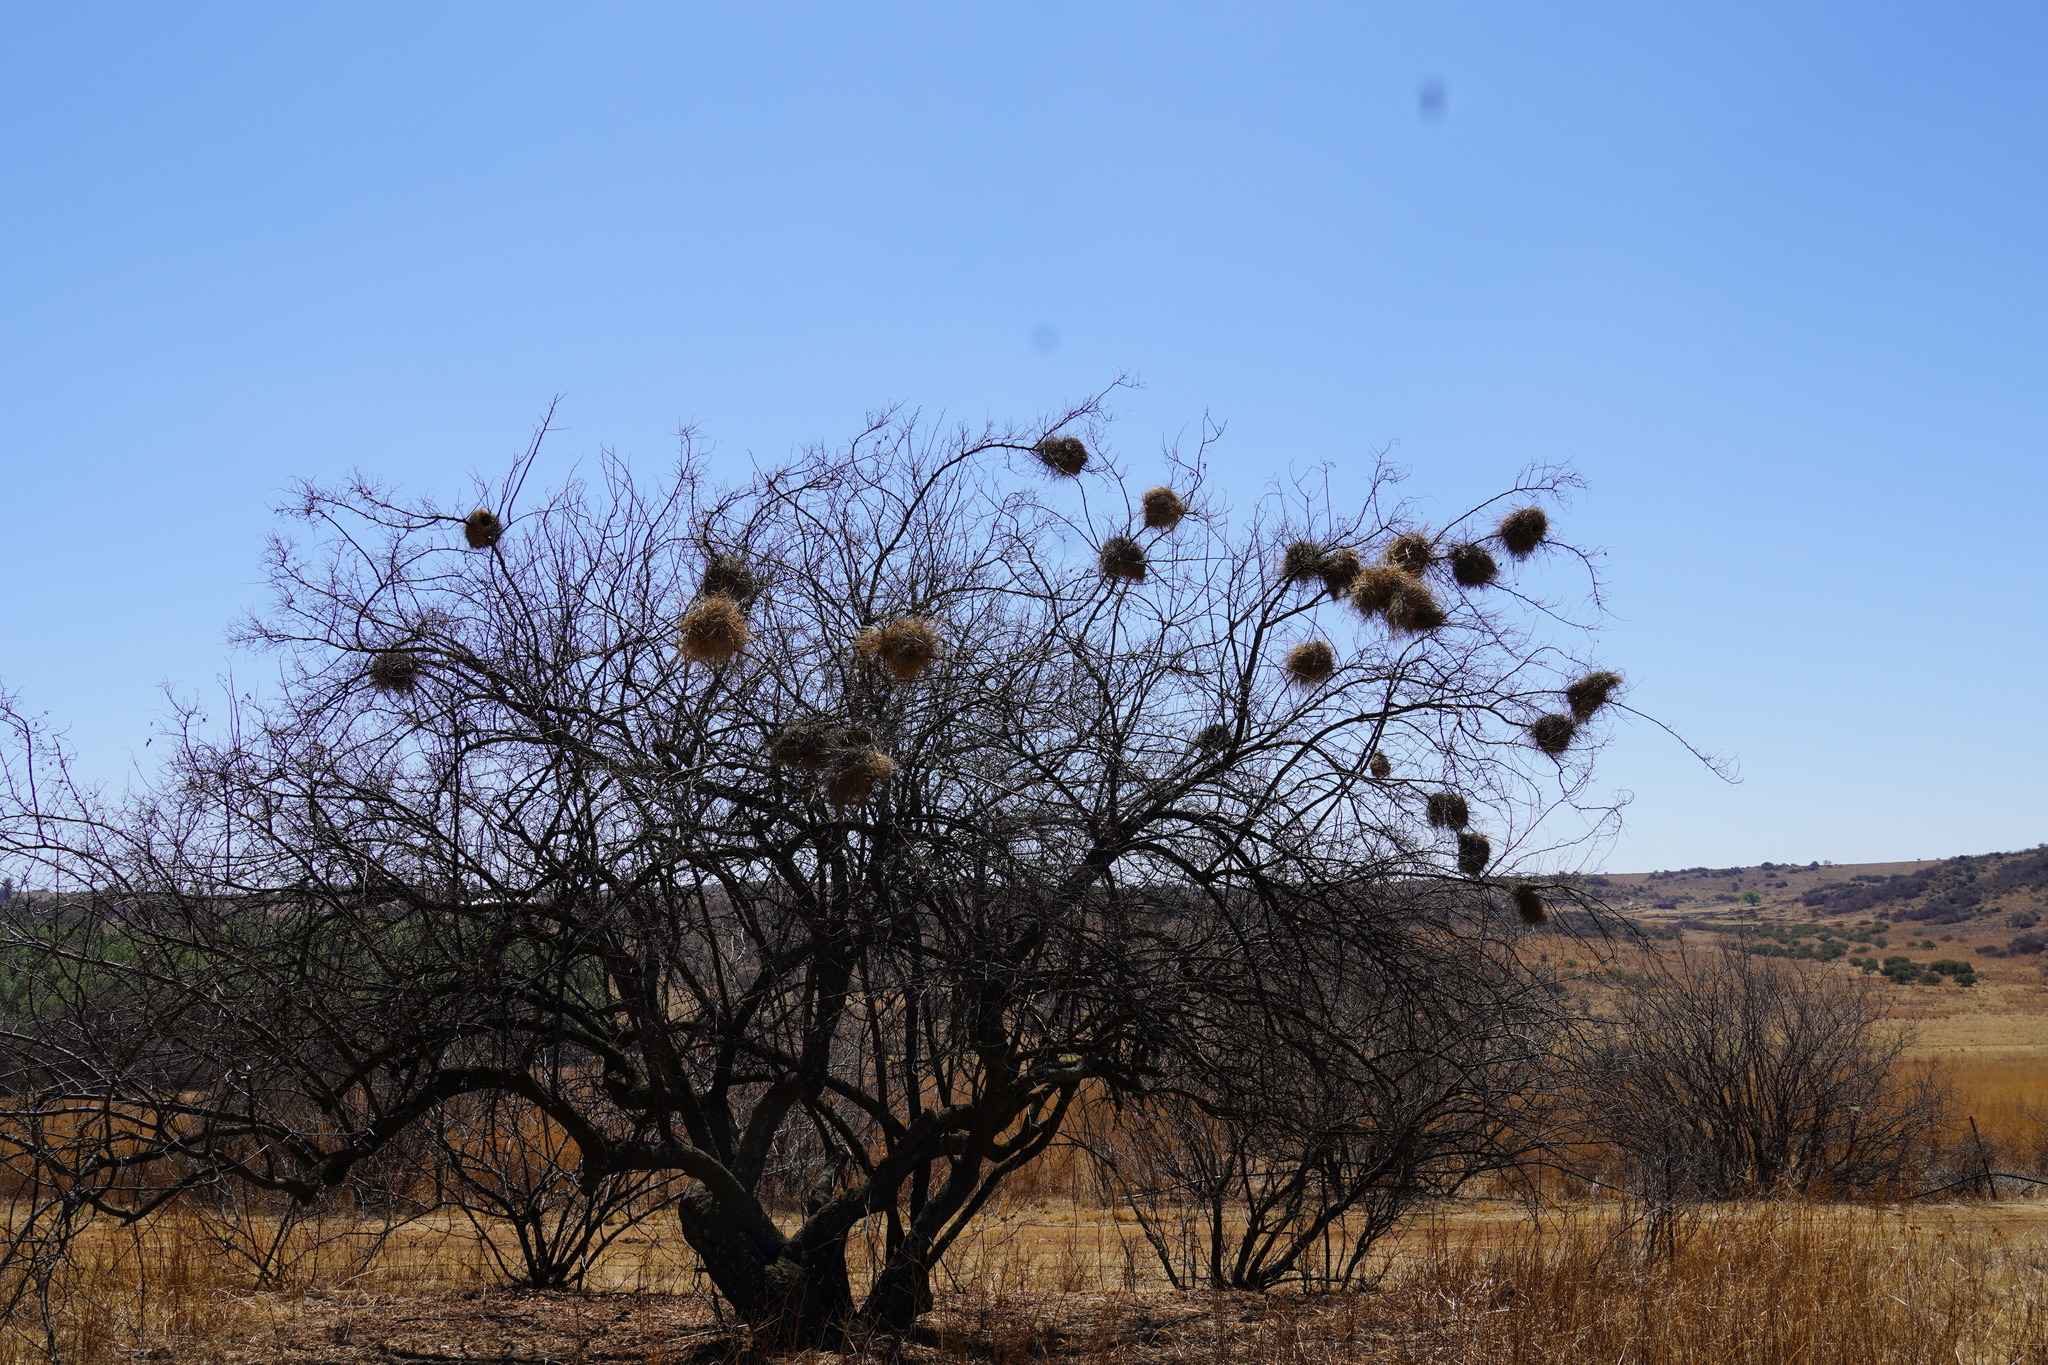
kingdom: Animalia
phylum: Chordata
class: Aves
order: Passeriformes
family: Passeridae
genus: Plocepasser
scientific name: Plocepasser mahali
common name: White-browed sparrow-weaver
